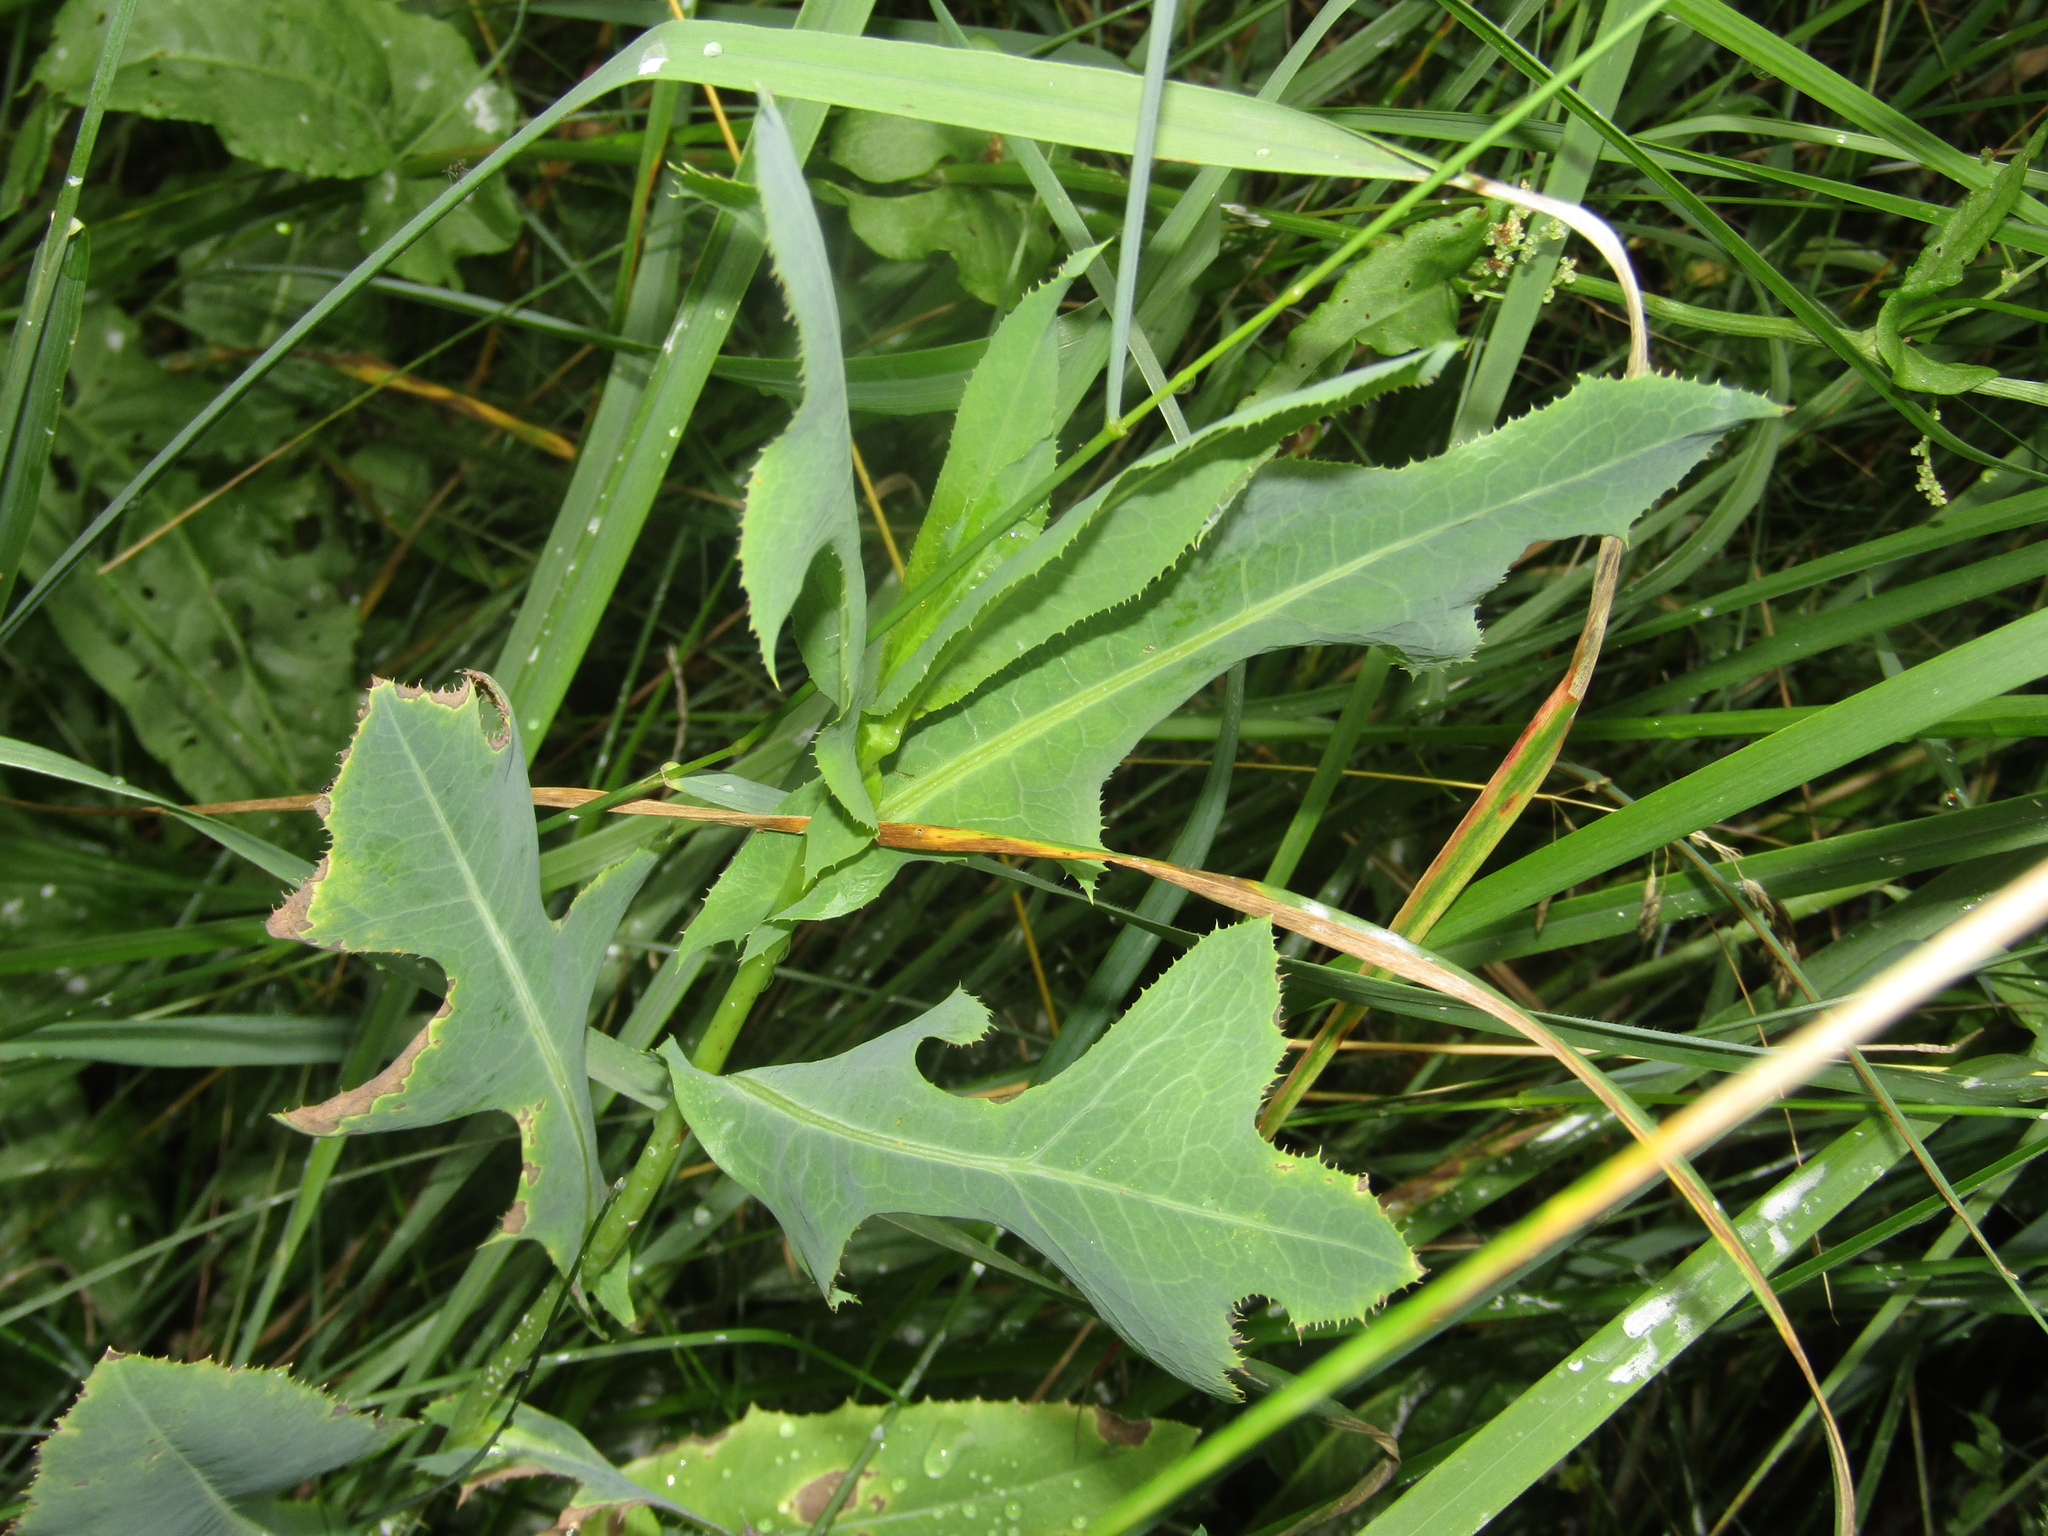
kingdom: Plantae
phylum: Tracheophyta
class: Magnoliopsida
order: Asterales
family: Asteraceae
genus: Lactuca
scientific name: Lactuca serriola
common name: Prickly lettuce
